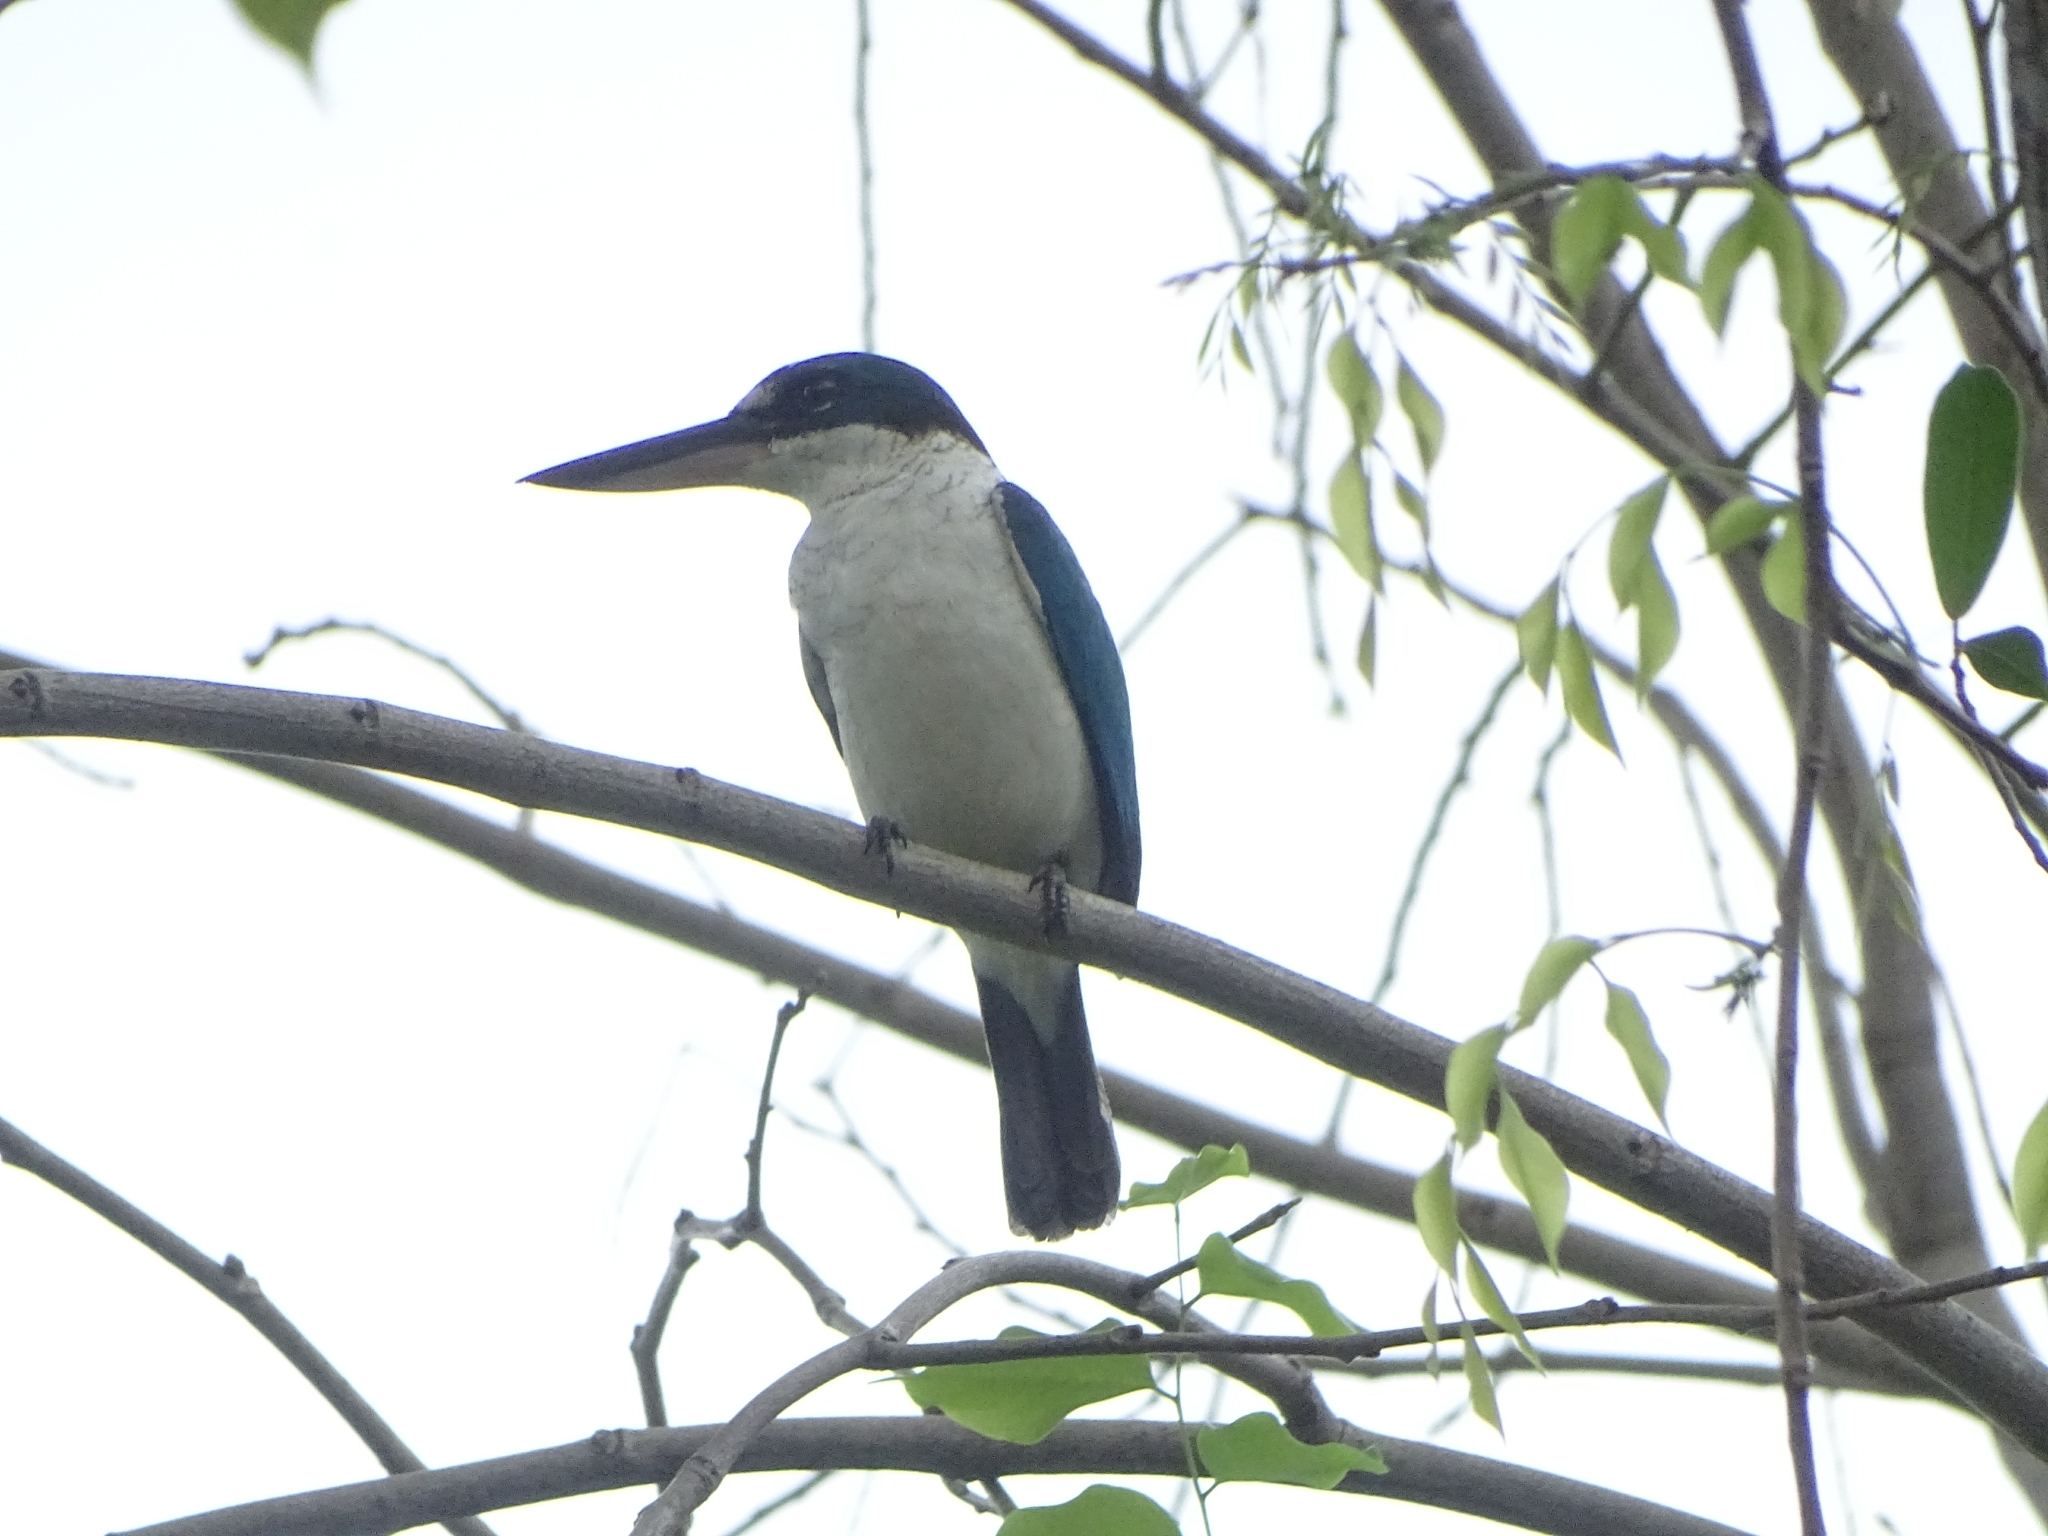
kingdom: Animalia
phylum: Chordata
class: Aves
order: Coraciiformes
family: Alcedinidae
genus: Todiramphus
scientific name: Todiramphus chloris
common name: Collared kingfisher
